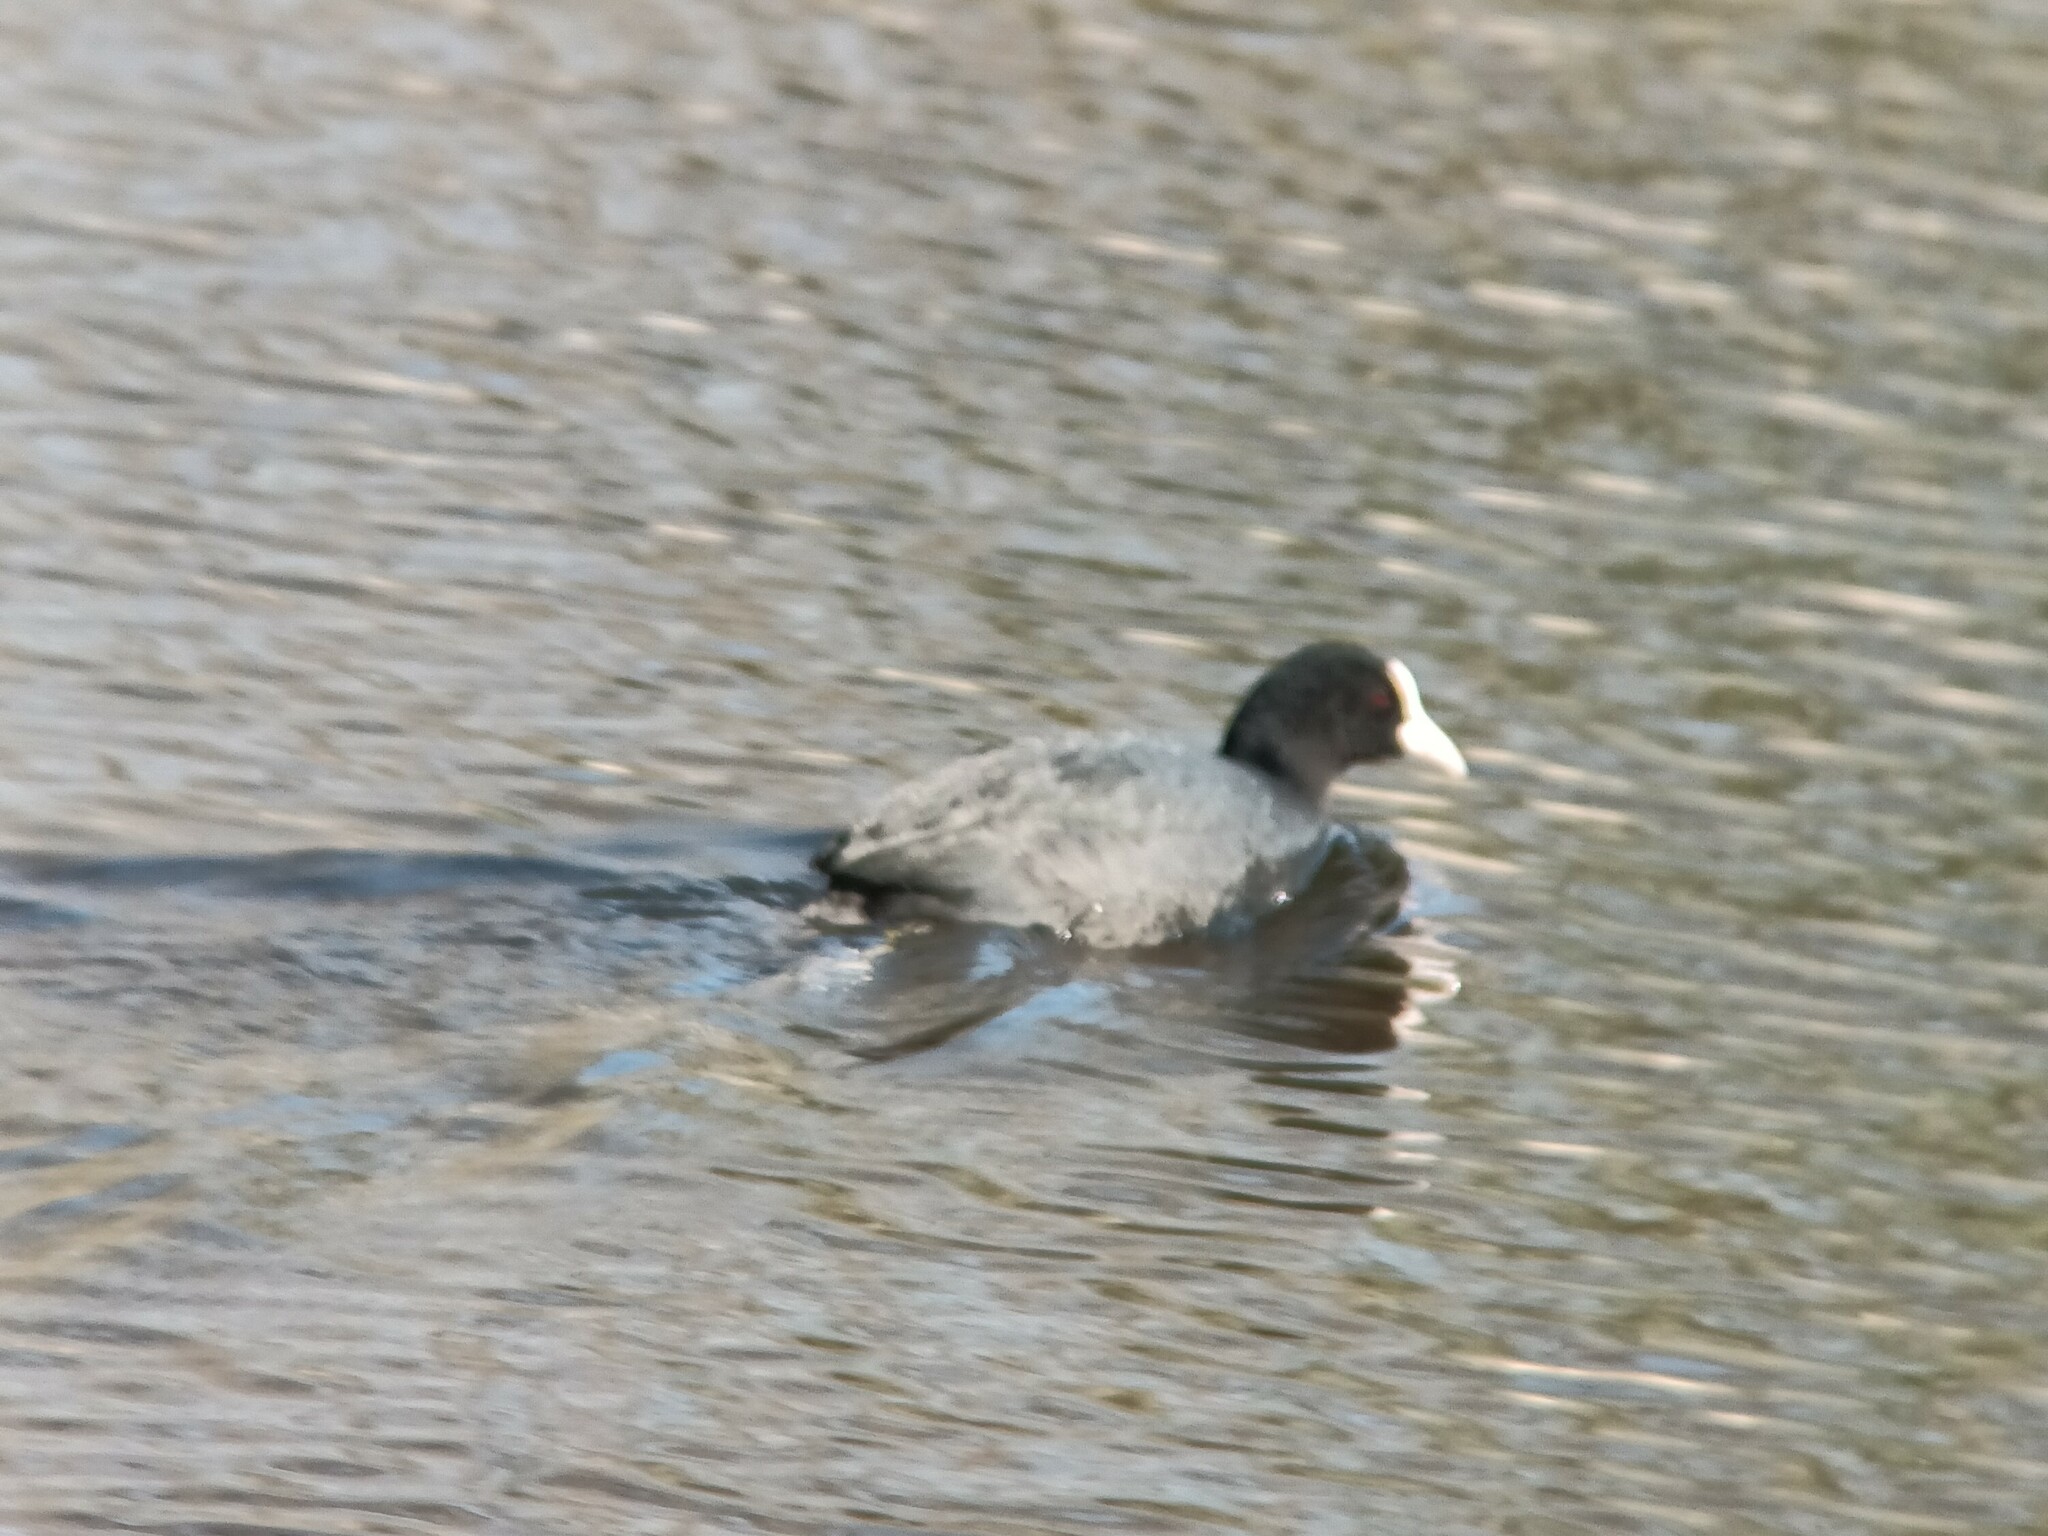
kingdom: Animalia
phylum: Chordata
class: Aves
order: Gruiformes
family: Rallidae
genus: Fulica
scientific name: Fulica atra
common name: Eurasian coot
